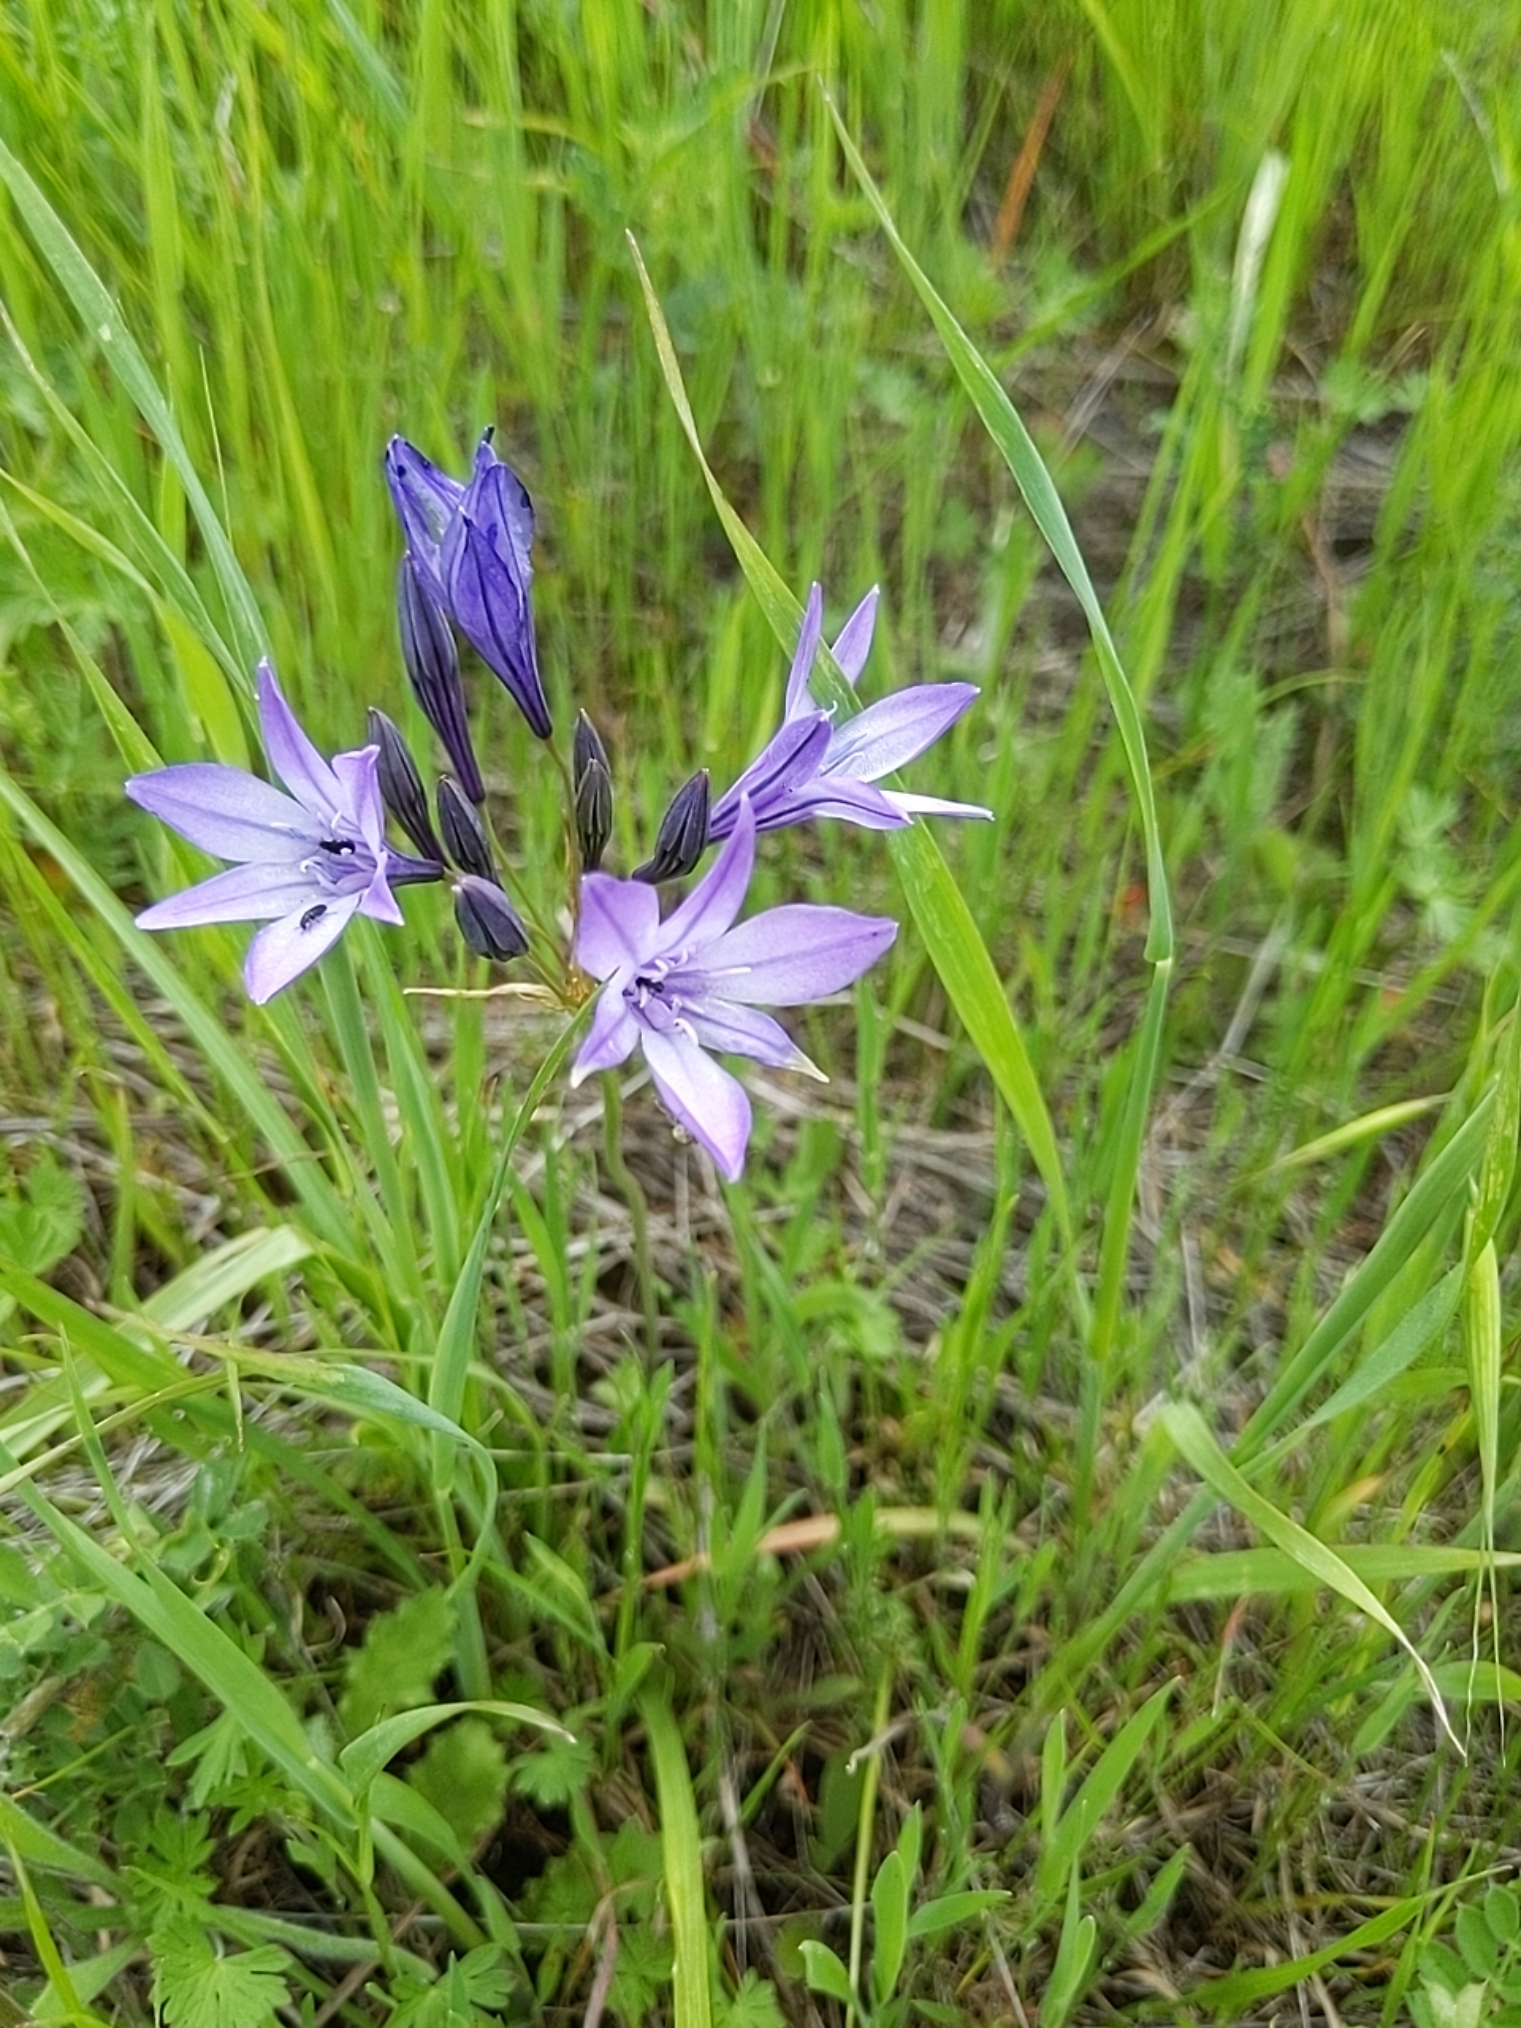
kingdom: Plantae
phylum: Tracheophyta
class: Liliopsida
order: Asparagales
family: Asparagaceae
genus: Triteleia
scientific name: Triteleia laxa
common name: Triplet-lily
